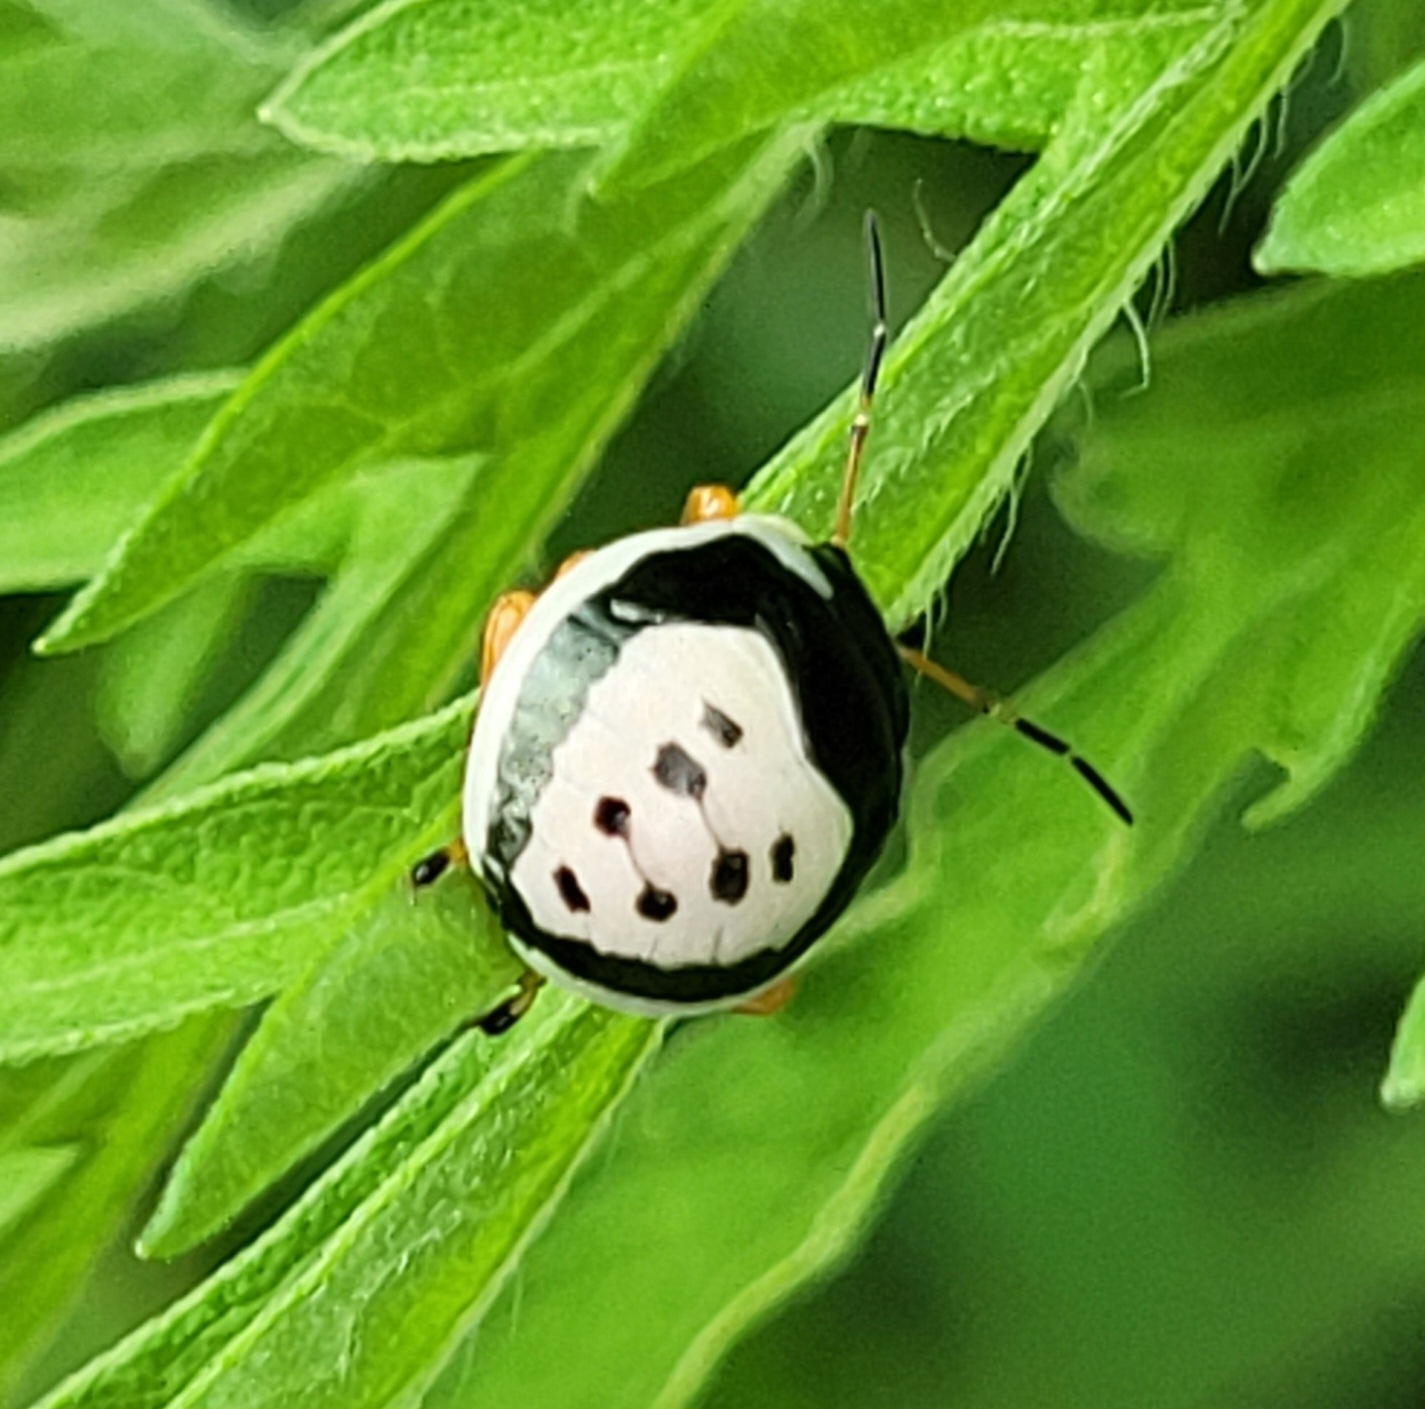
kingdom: Animalia
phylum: Arthropoda
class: Insecta
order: Hemiptera
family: Pentatomidae
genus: Stiretrus
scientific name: Stiretrus anchorago
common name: Anchor stink bug
